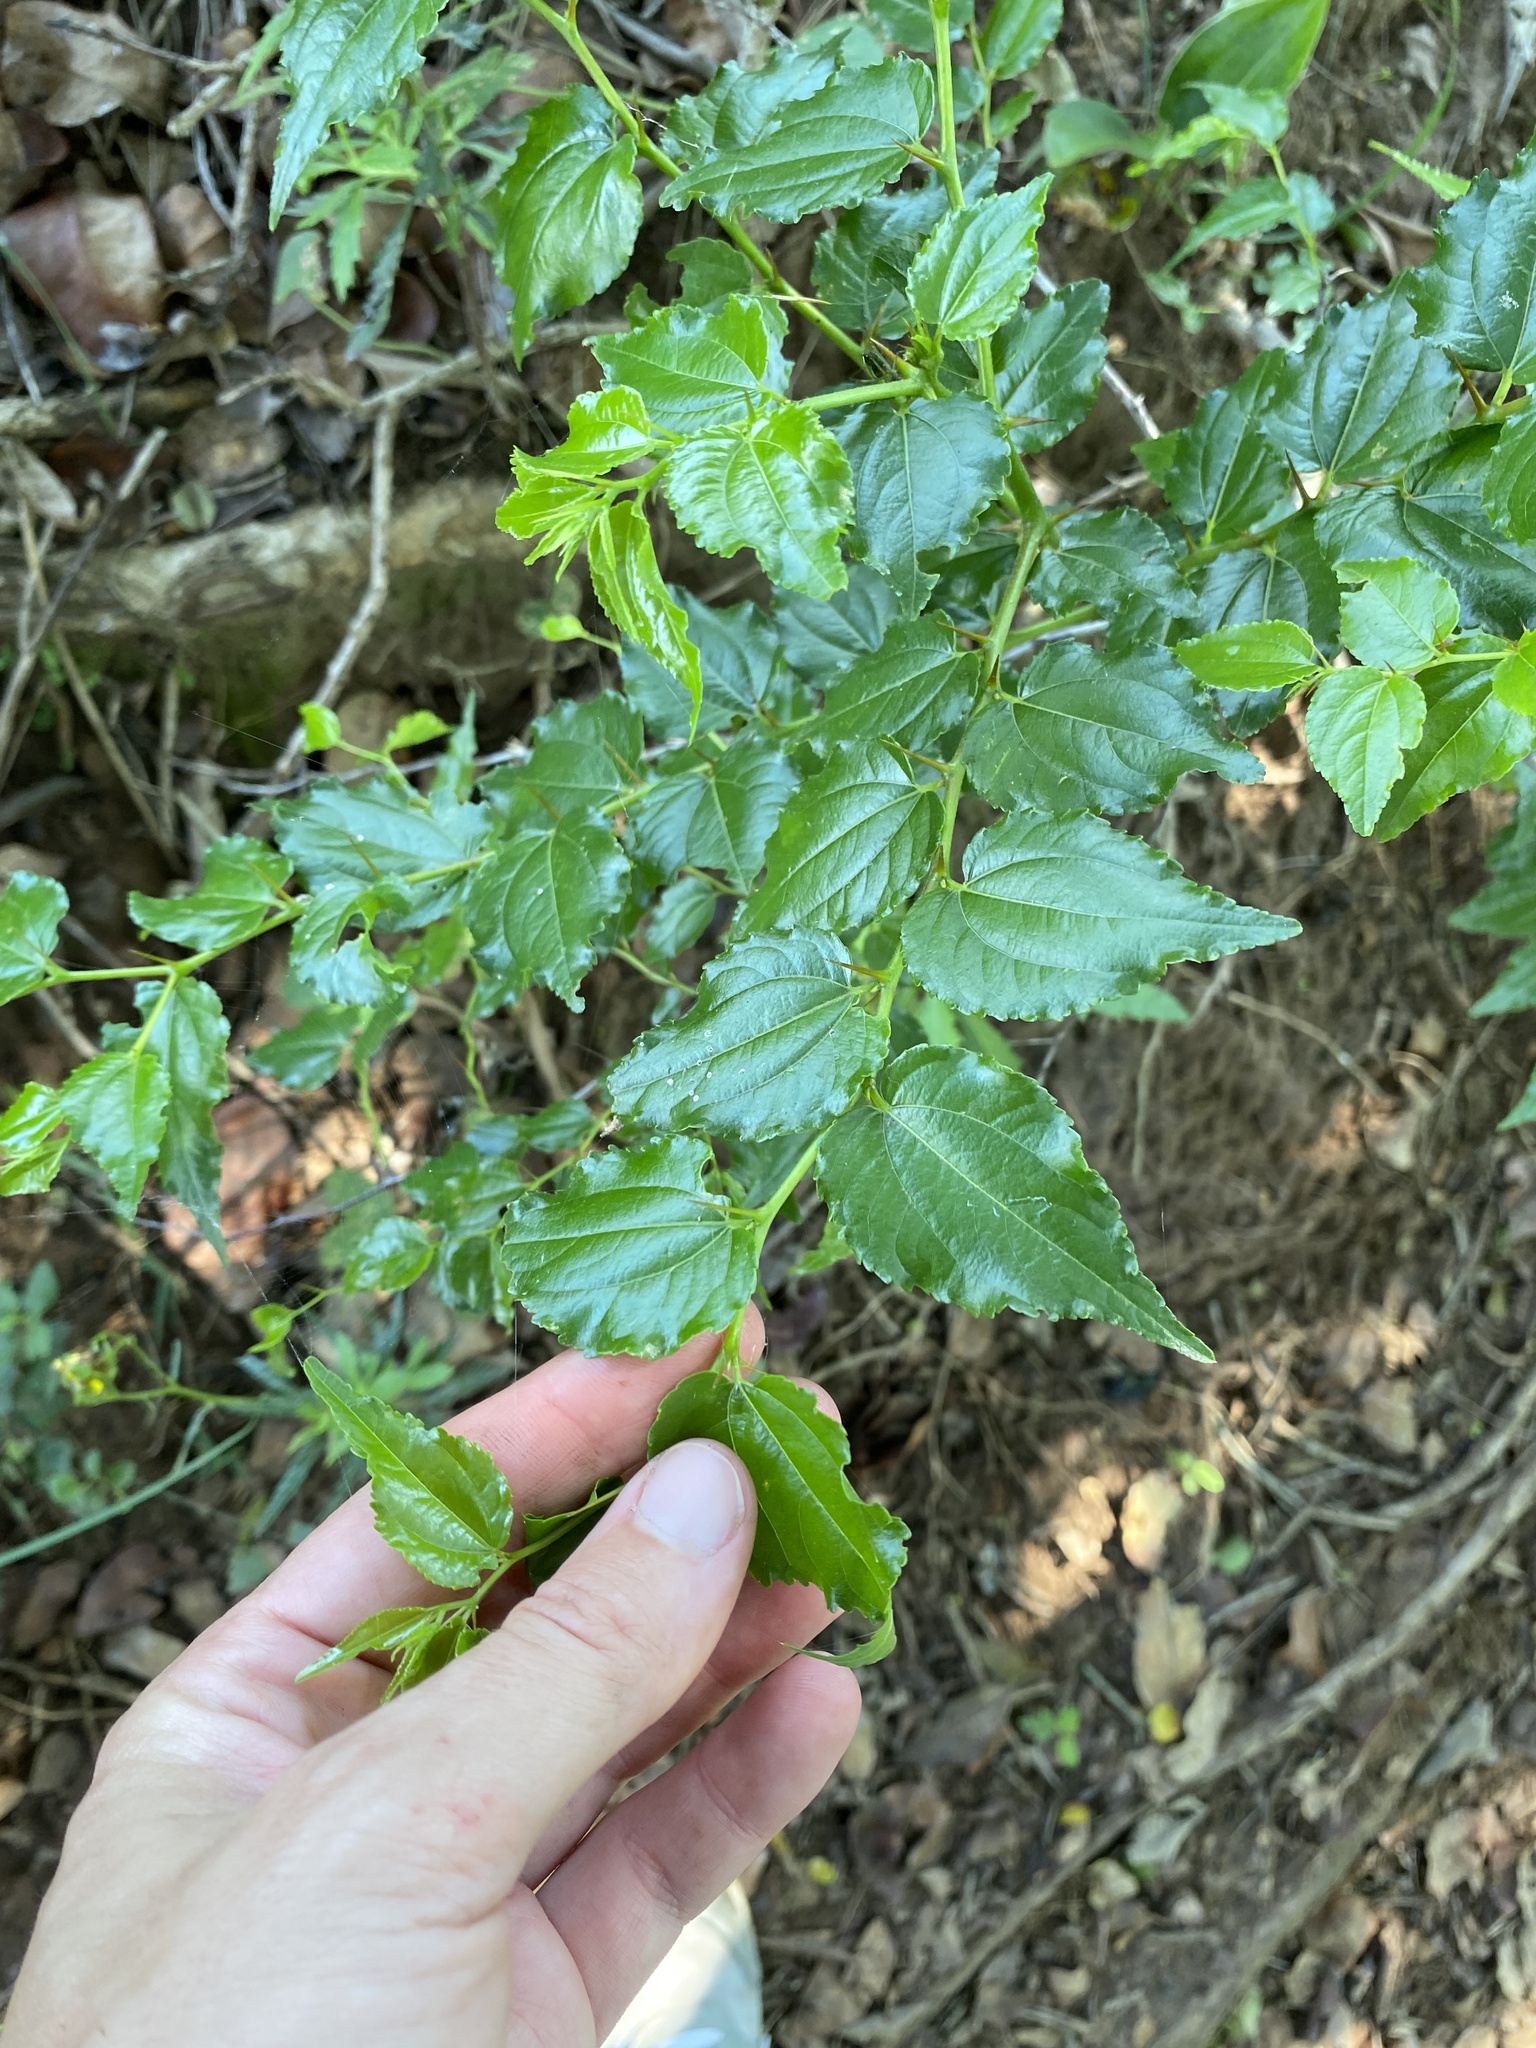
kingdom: Plantae
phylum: Tracheophyta
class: Magnoliopsida
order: Rosales
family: Rhamnaceae
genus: Ziziphus
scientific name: Ziziphus mucronata
